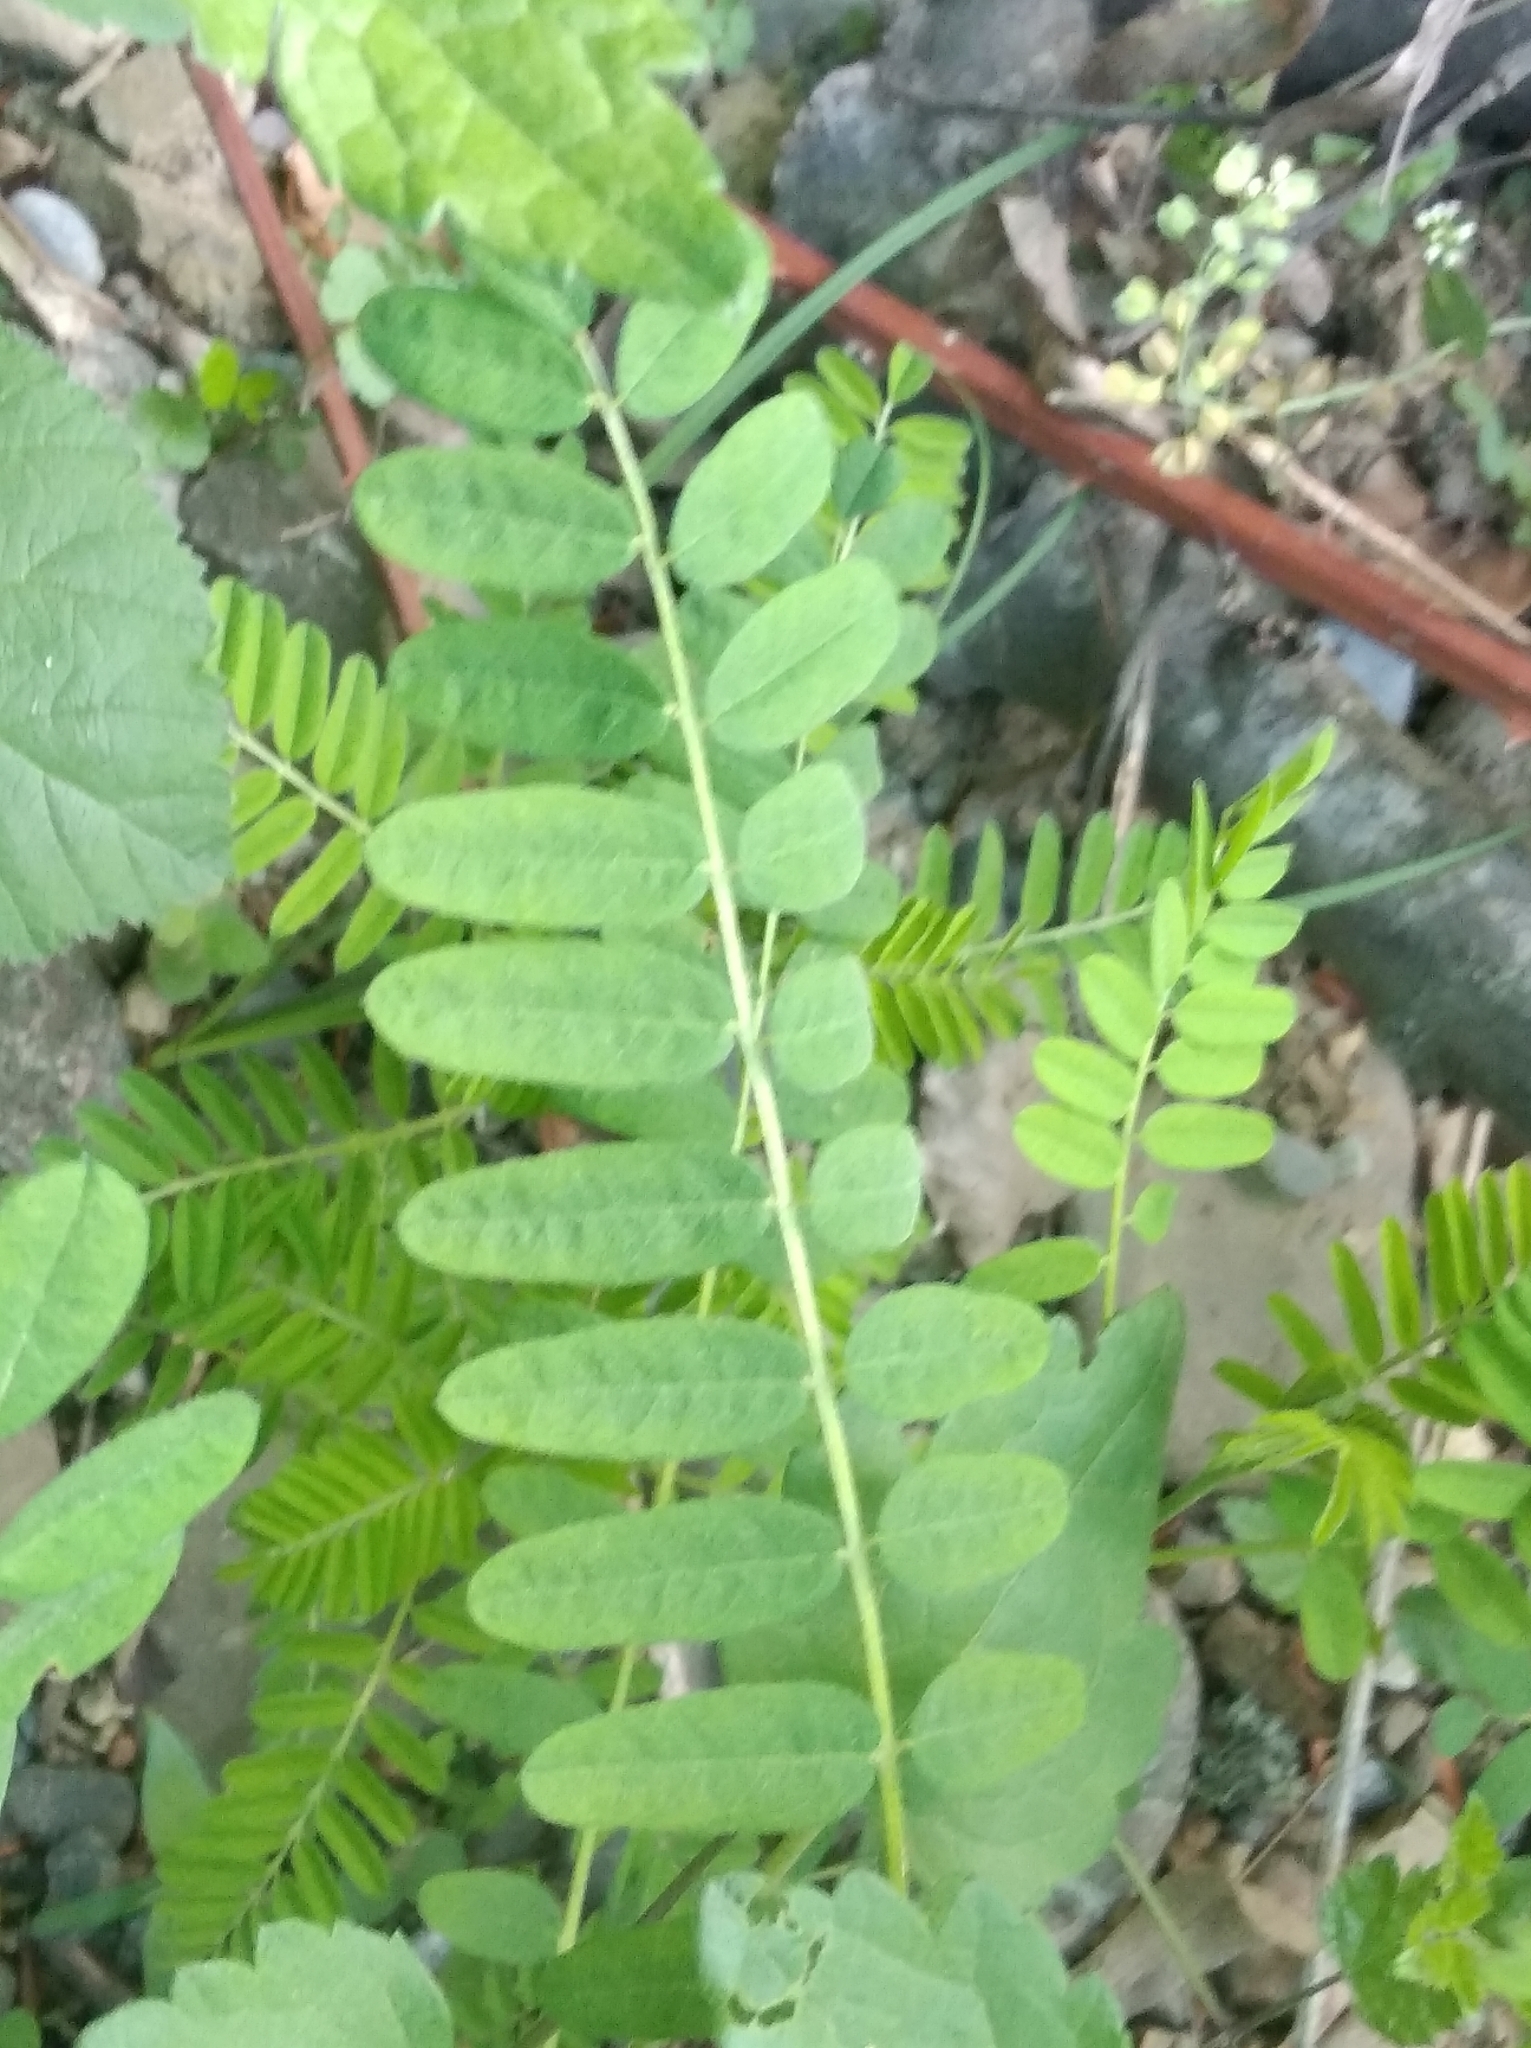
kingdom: Plantae
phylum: Tracheophyta
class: Magnoliopsida
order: Fabales
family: Fabaceae
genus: Sophora
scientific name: Sophora alopecuroides
